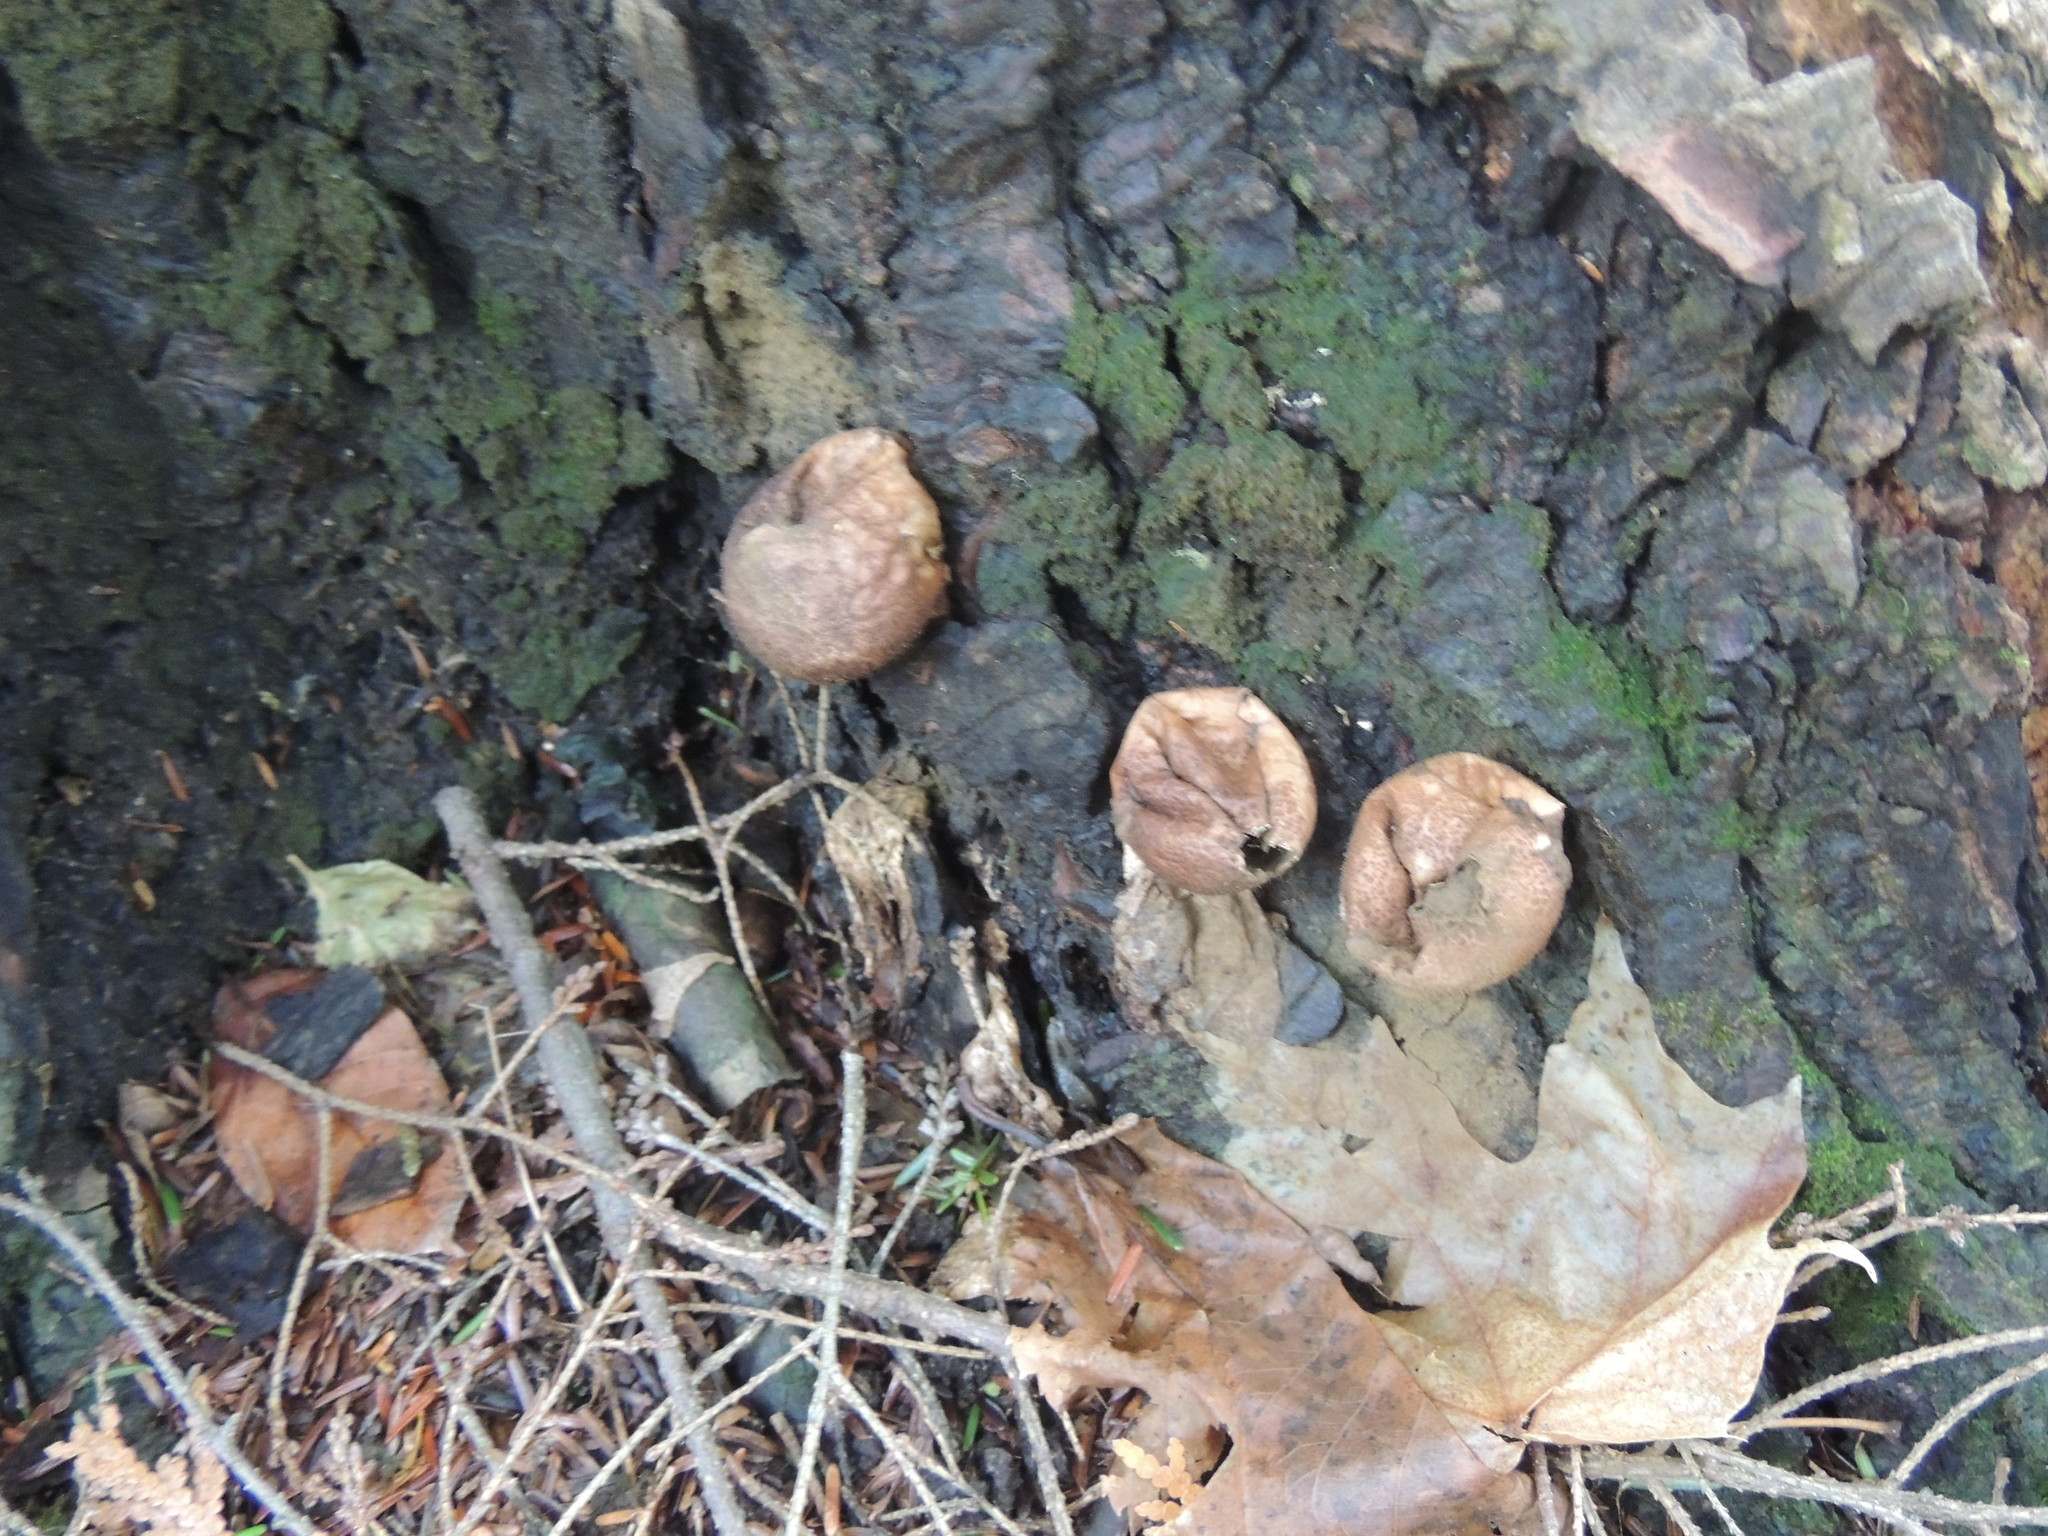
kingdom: Fungi
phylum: Basidiomycota
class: Agaricomycetes
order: Agaricales
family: Lycoperdaceae
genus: Apioperdon
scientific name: Apioperdon pyriforme
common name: Pear-shaped puffball
